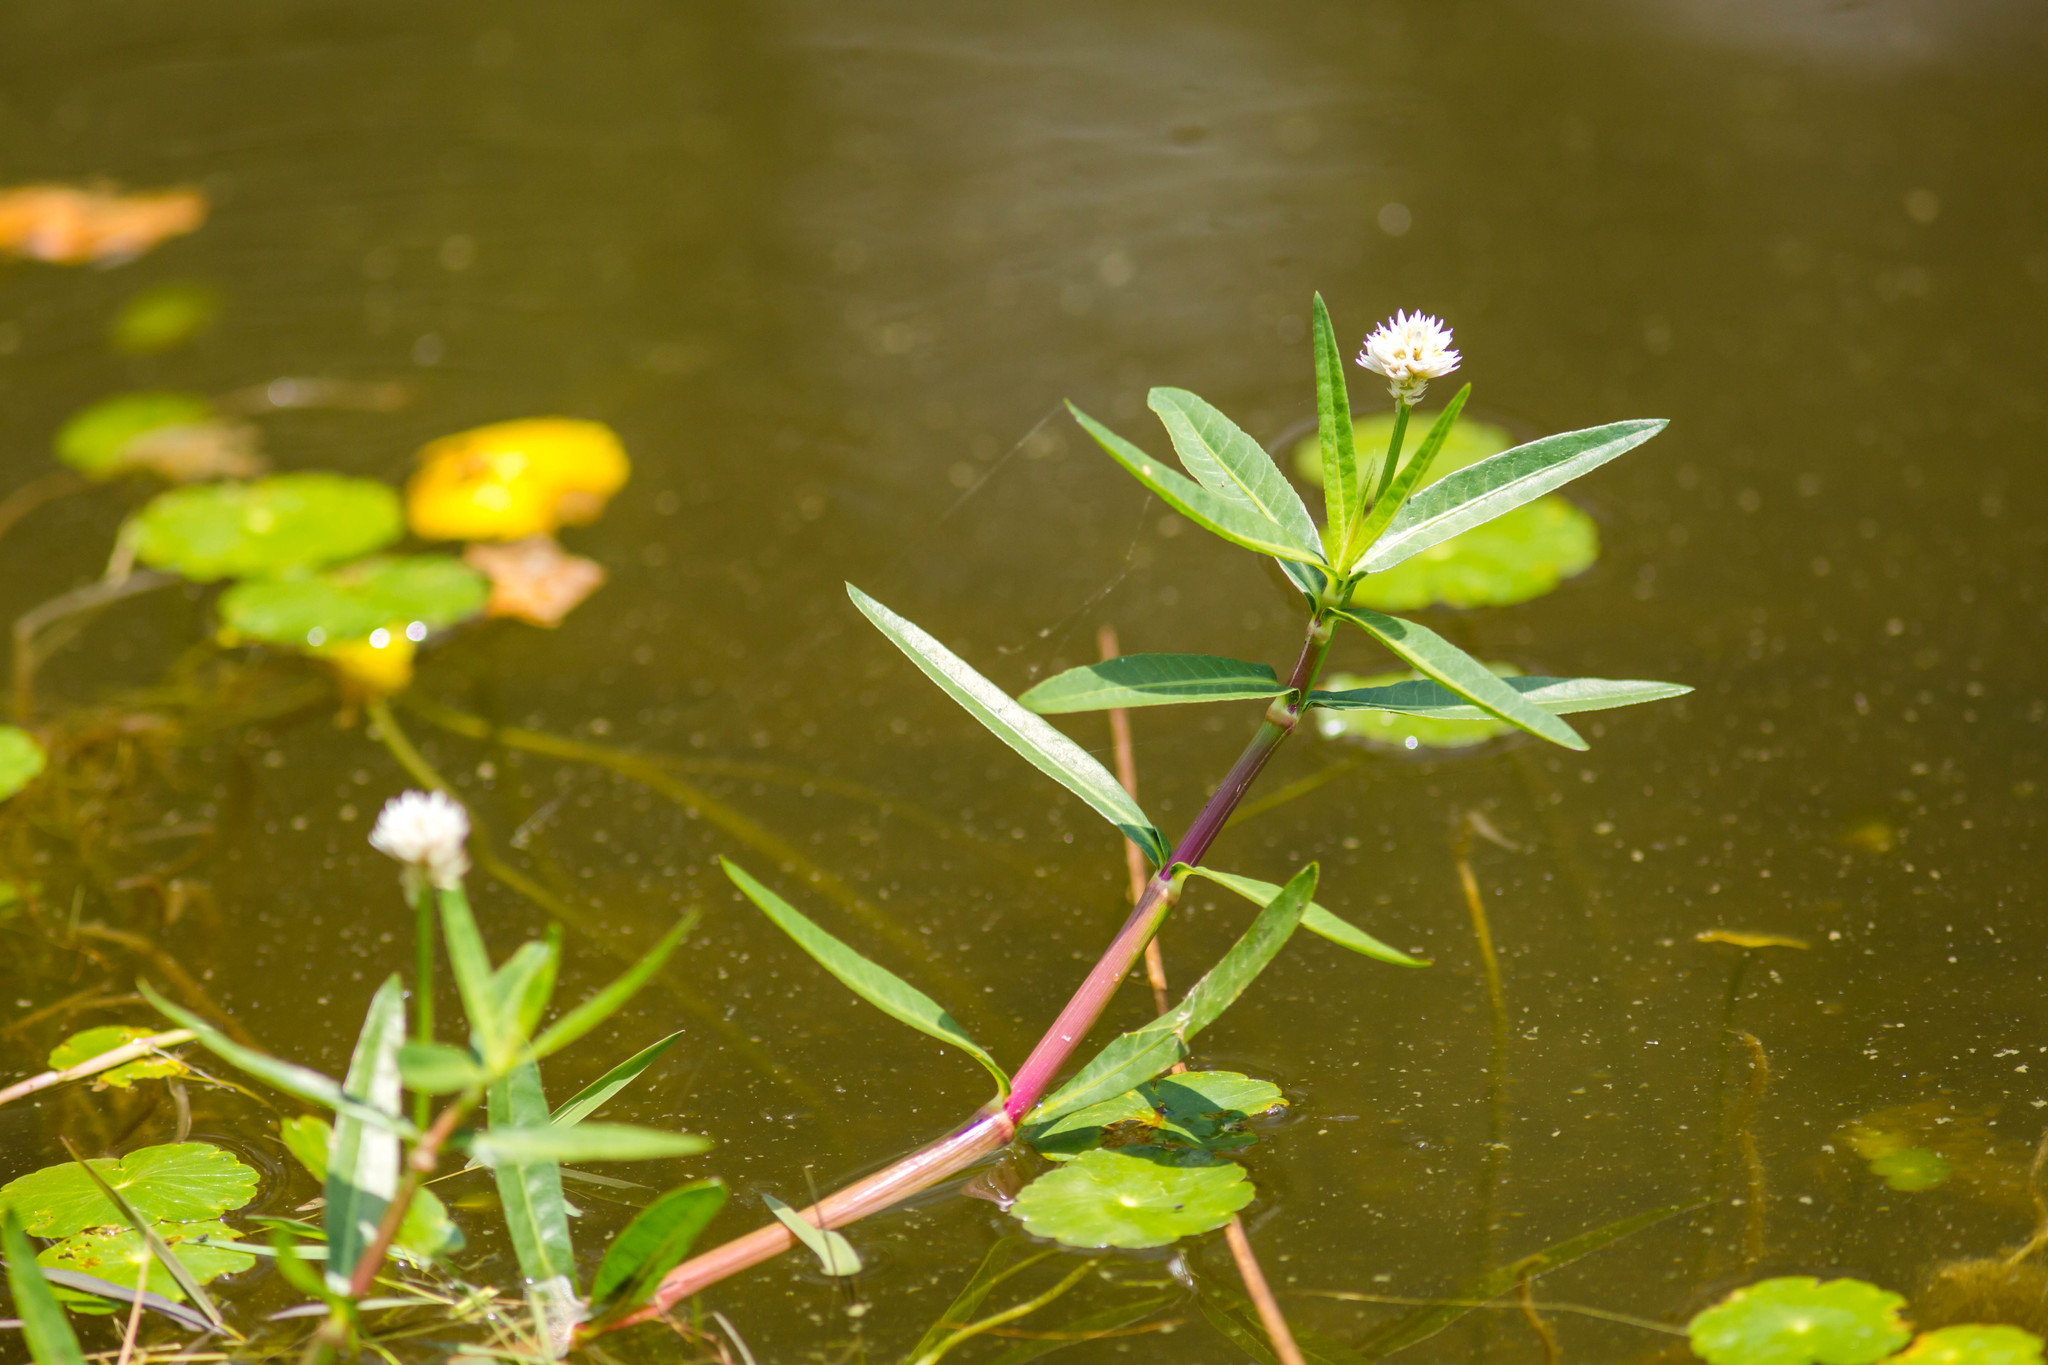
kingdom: Plantae
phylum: Tracheophyta
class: Magnoliopsida
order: Caryophyllales
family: Amaranthaceae
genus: Alternanthera
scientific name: Alternanthera philoxeroides
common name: Alligatorweed
